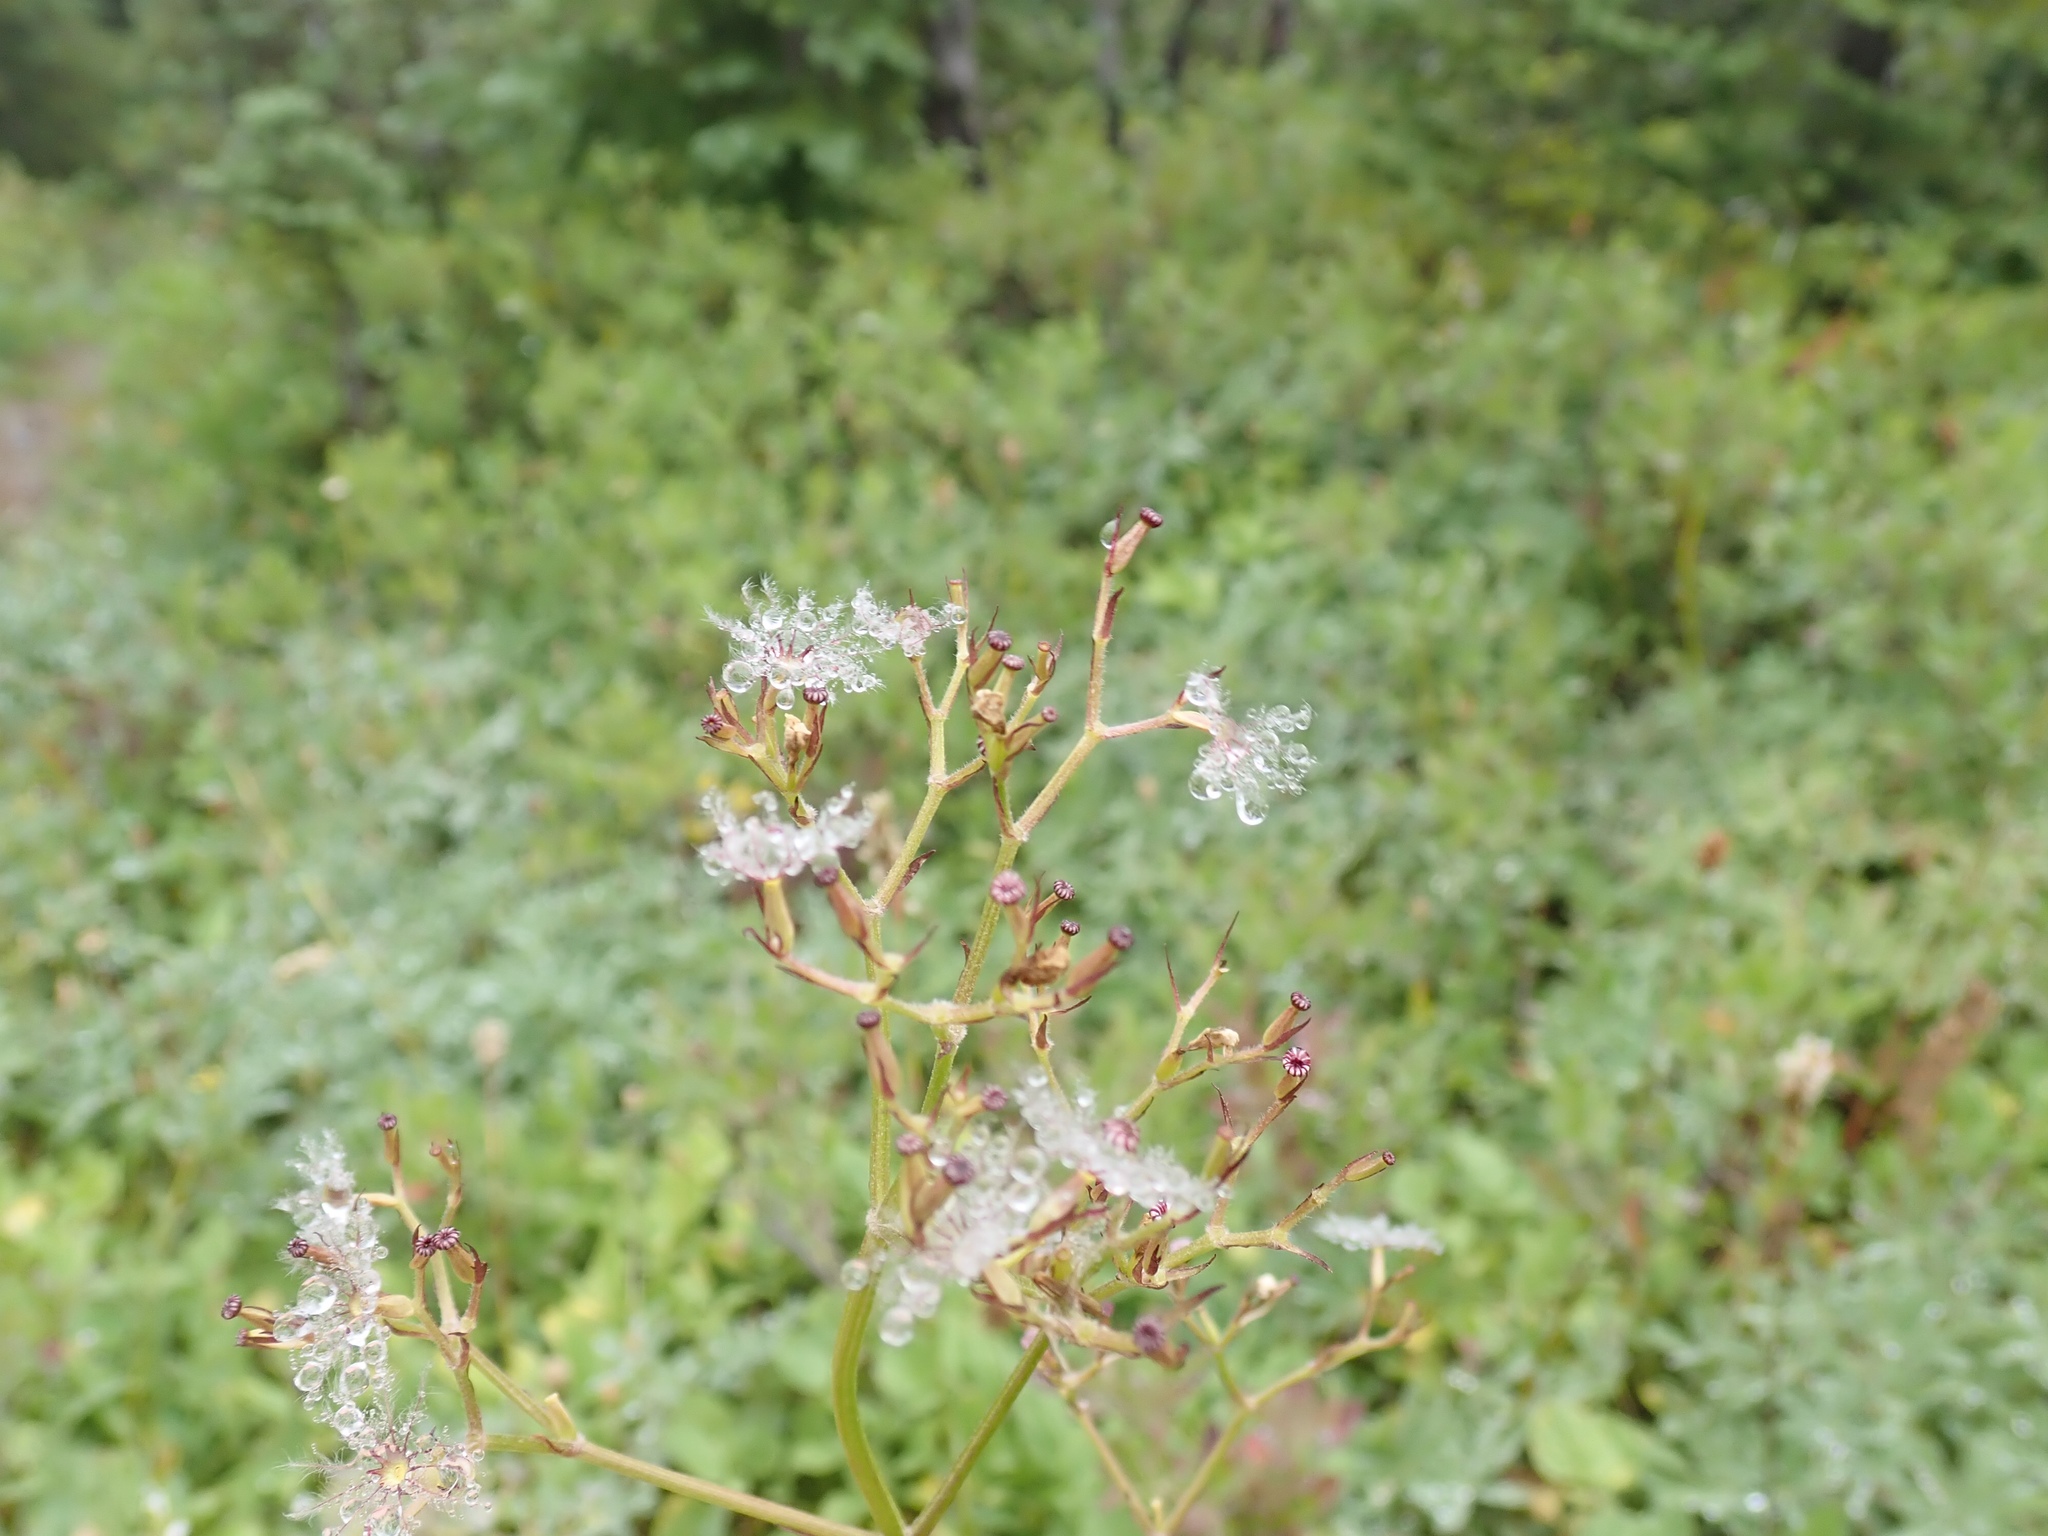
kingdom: Plantae
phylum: Tracheophyta
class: Magnoliopsida
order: Dipsacales
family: Caprifoliaceae
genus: Valeriana
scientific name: Valeriana sitchensis
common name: Pacific valerian
